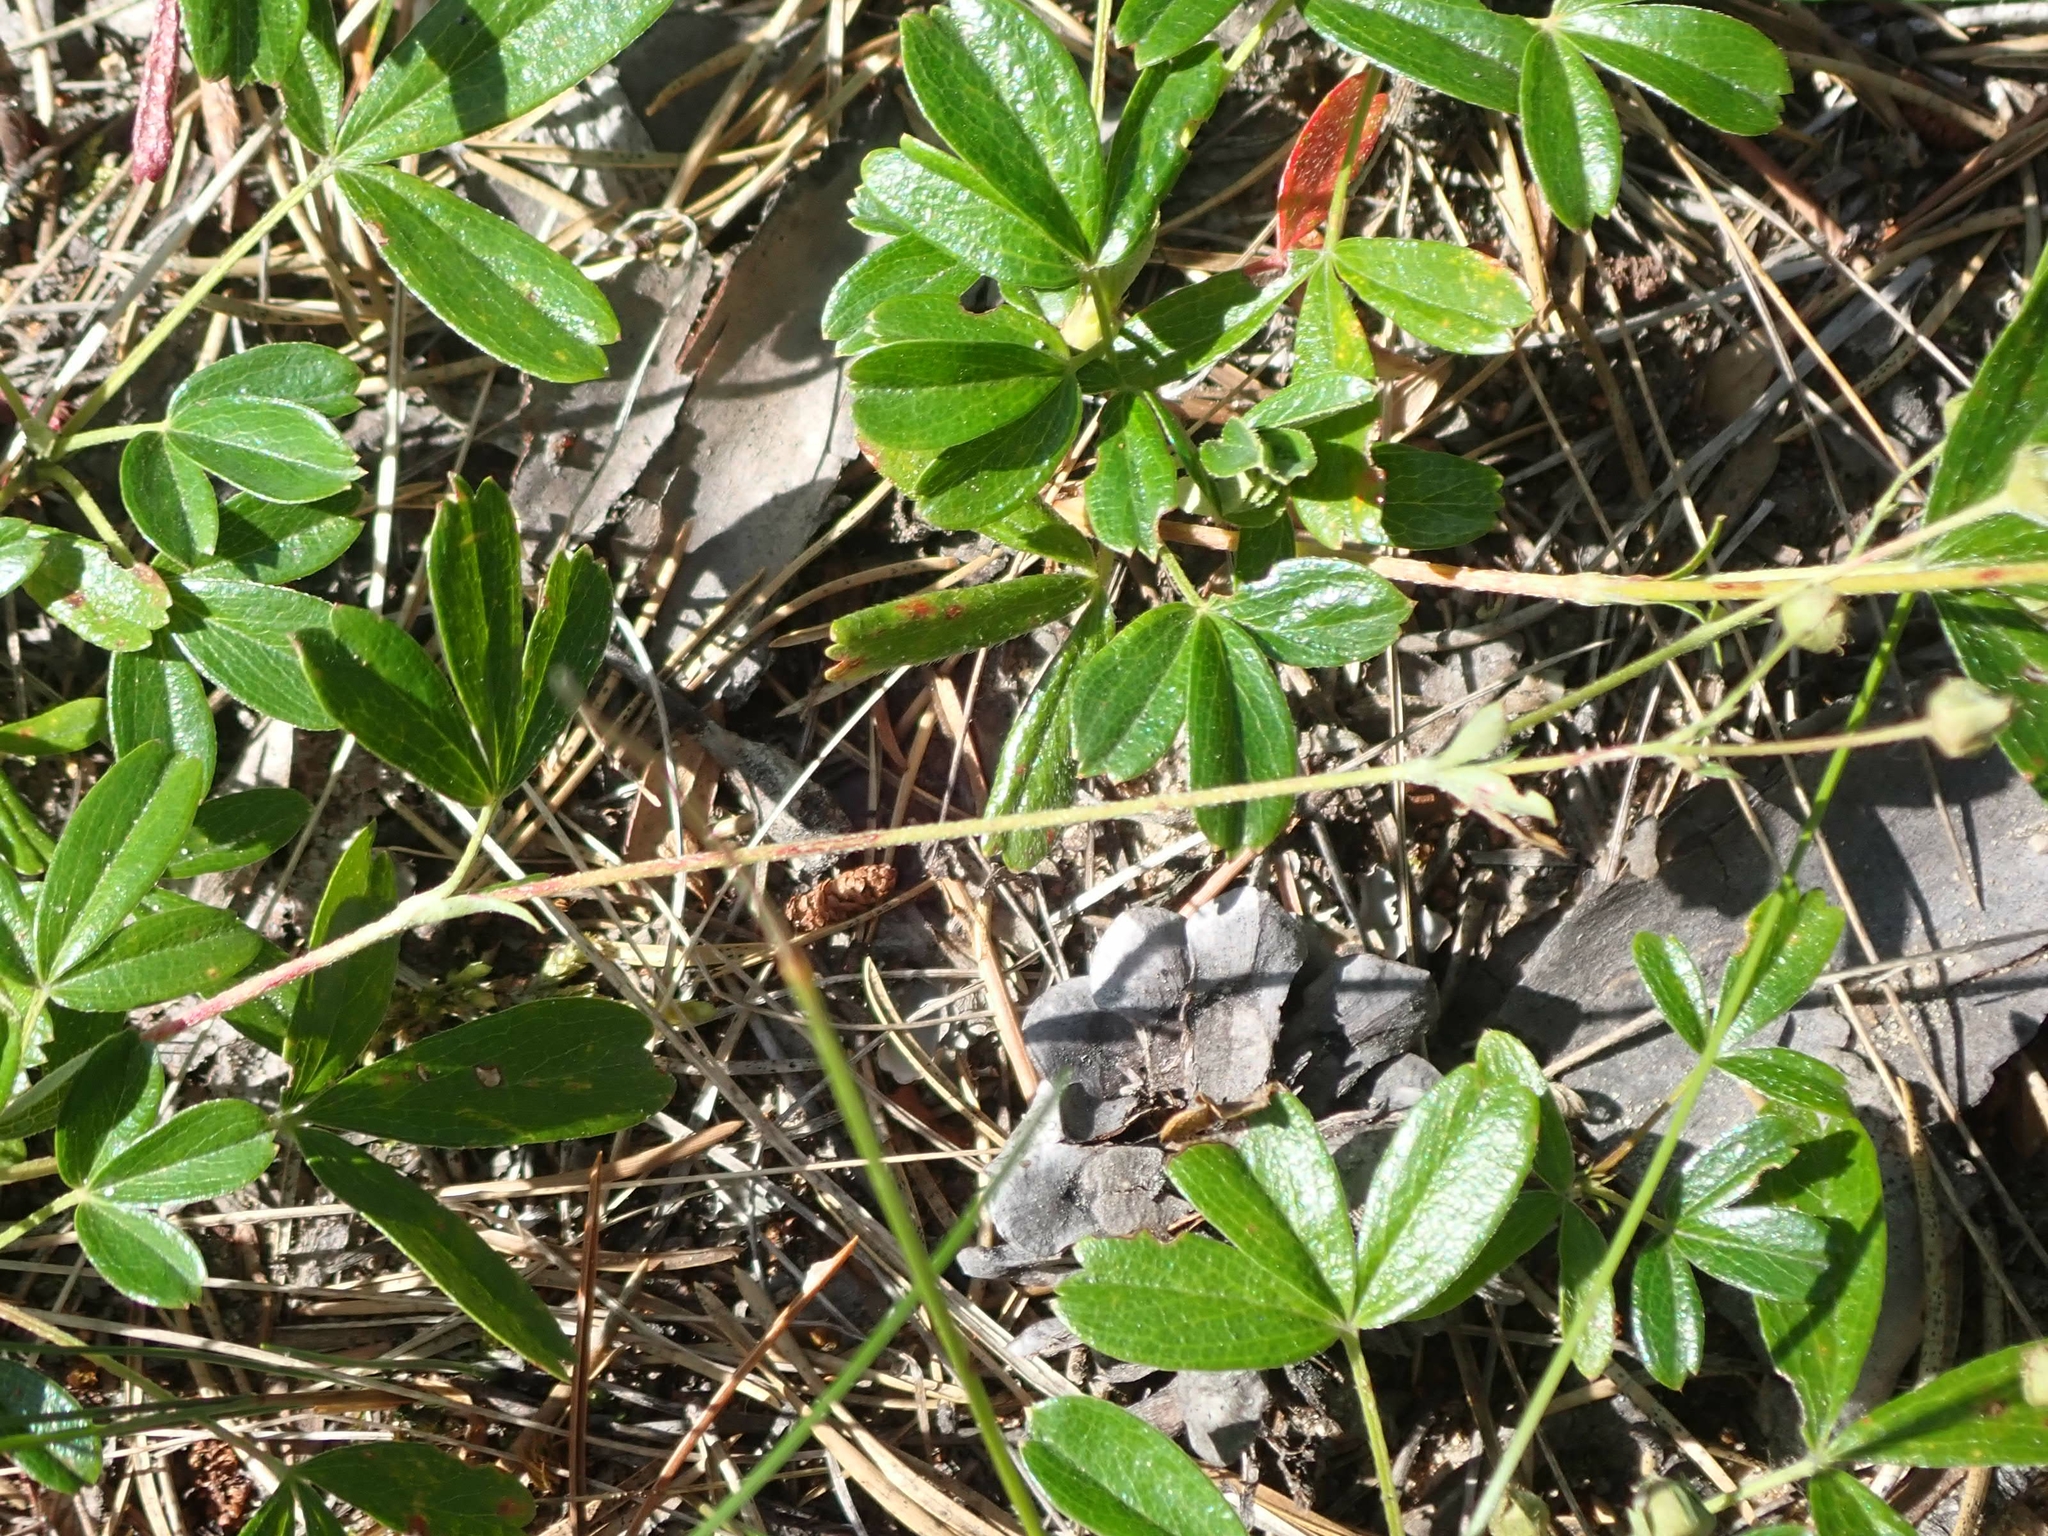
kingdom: Plantae
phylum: Tracheophyta
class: Magnoliopsida
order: Rosales
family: Rosaceae
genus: Sibbaldia
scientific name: Sibbaldia tridentata
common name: Three-toothed cinquefoil
